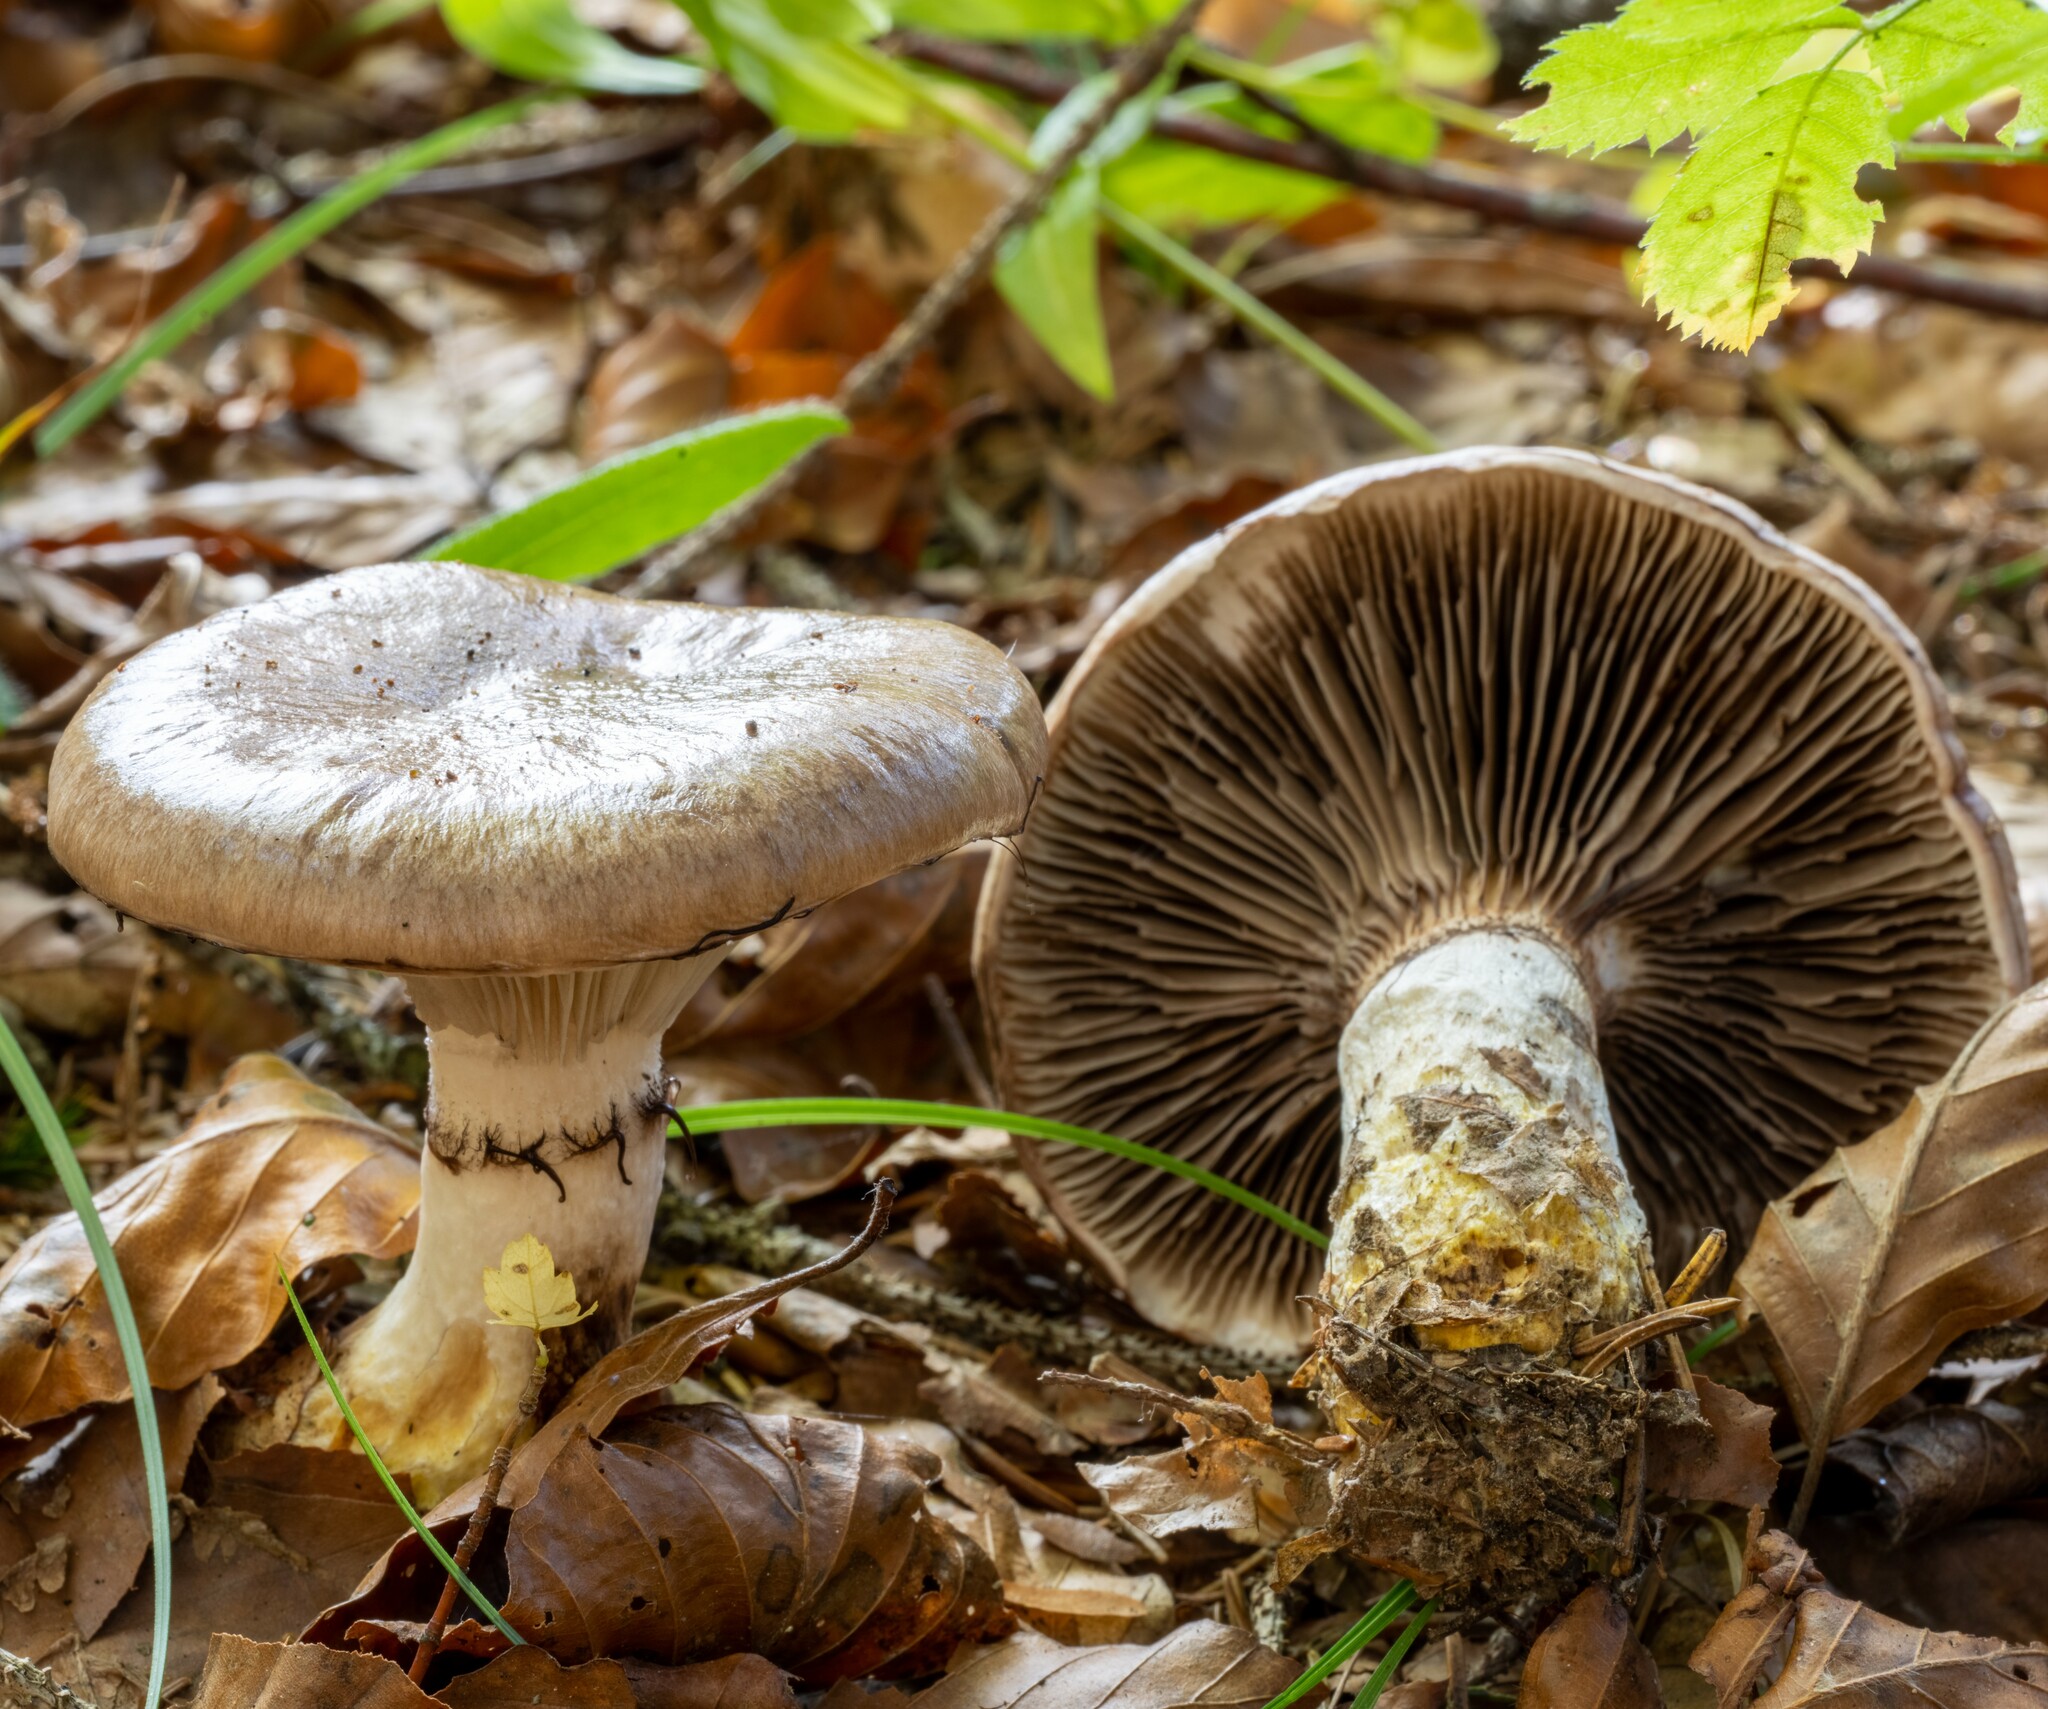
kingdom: Fungi
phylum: Basidiomycota
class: Agaricomycetes
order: Boletales
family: Gomphidiaceae
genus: Gomphidius
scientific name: Gomphidius glutinosus
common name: Slimy spike
